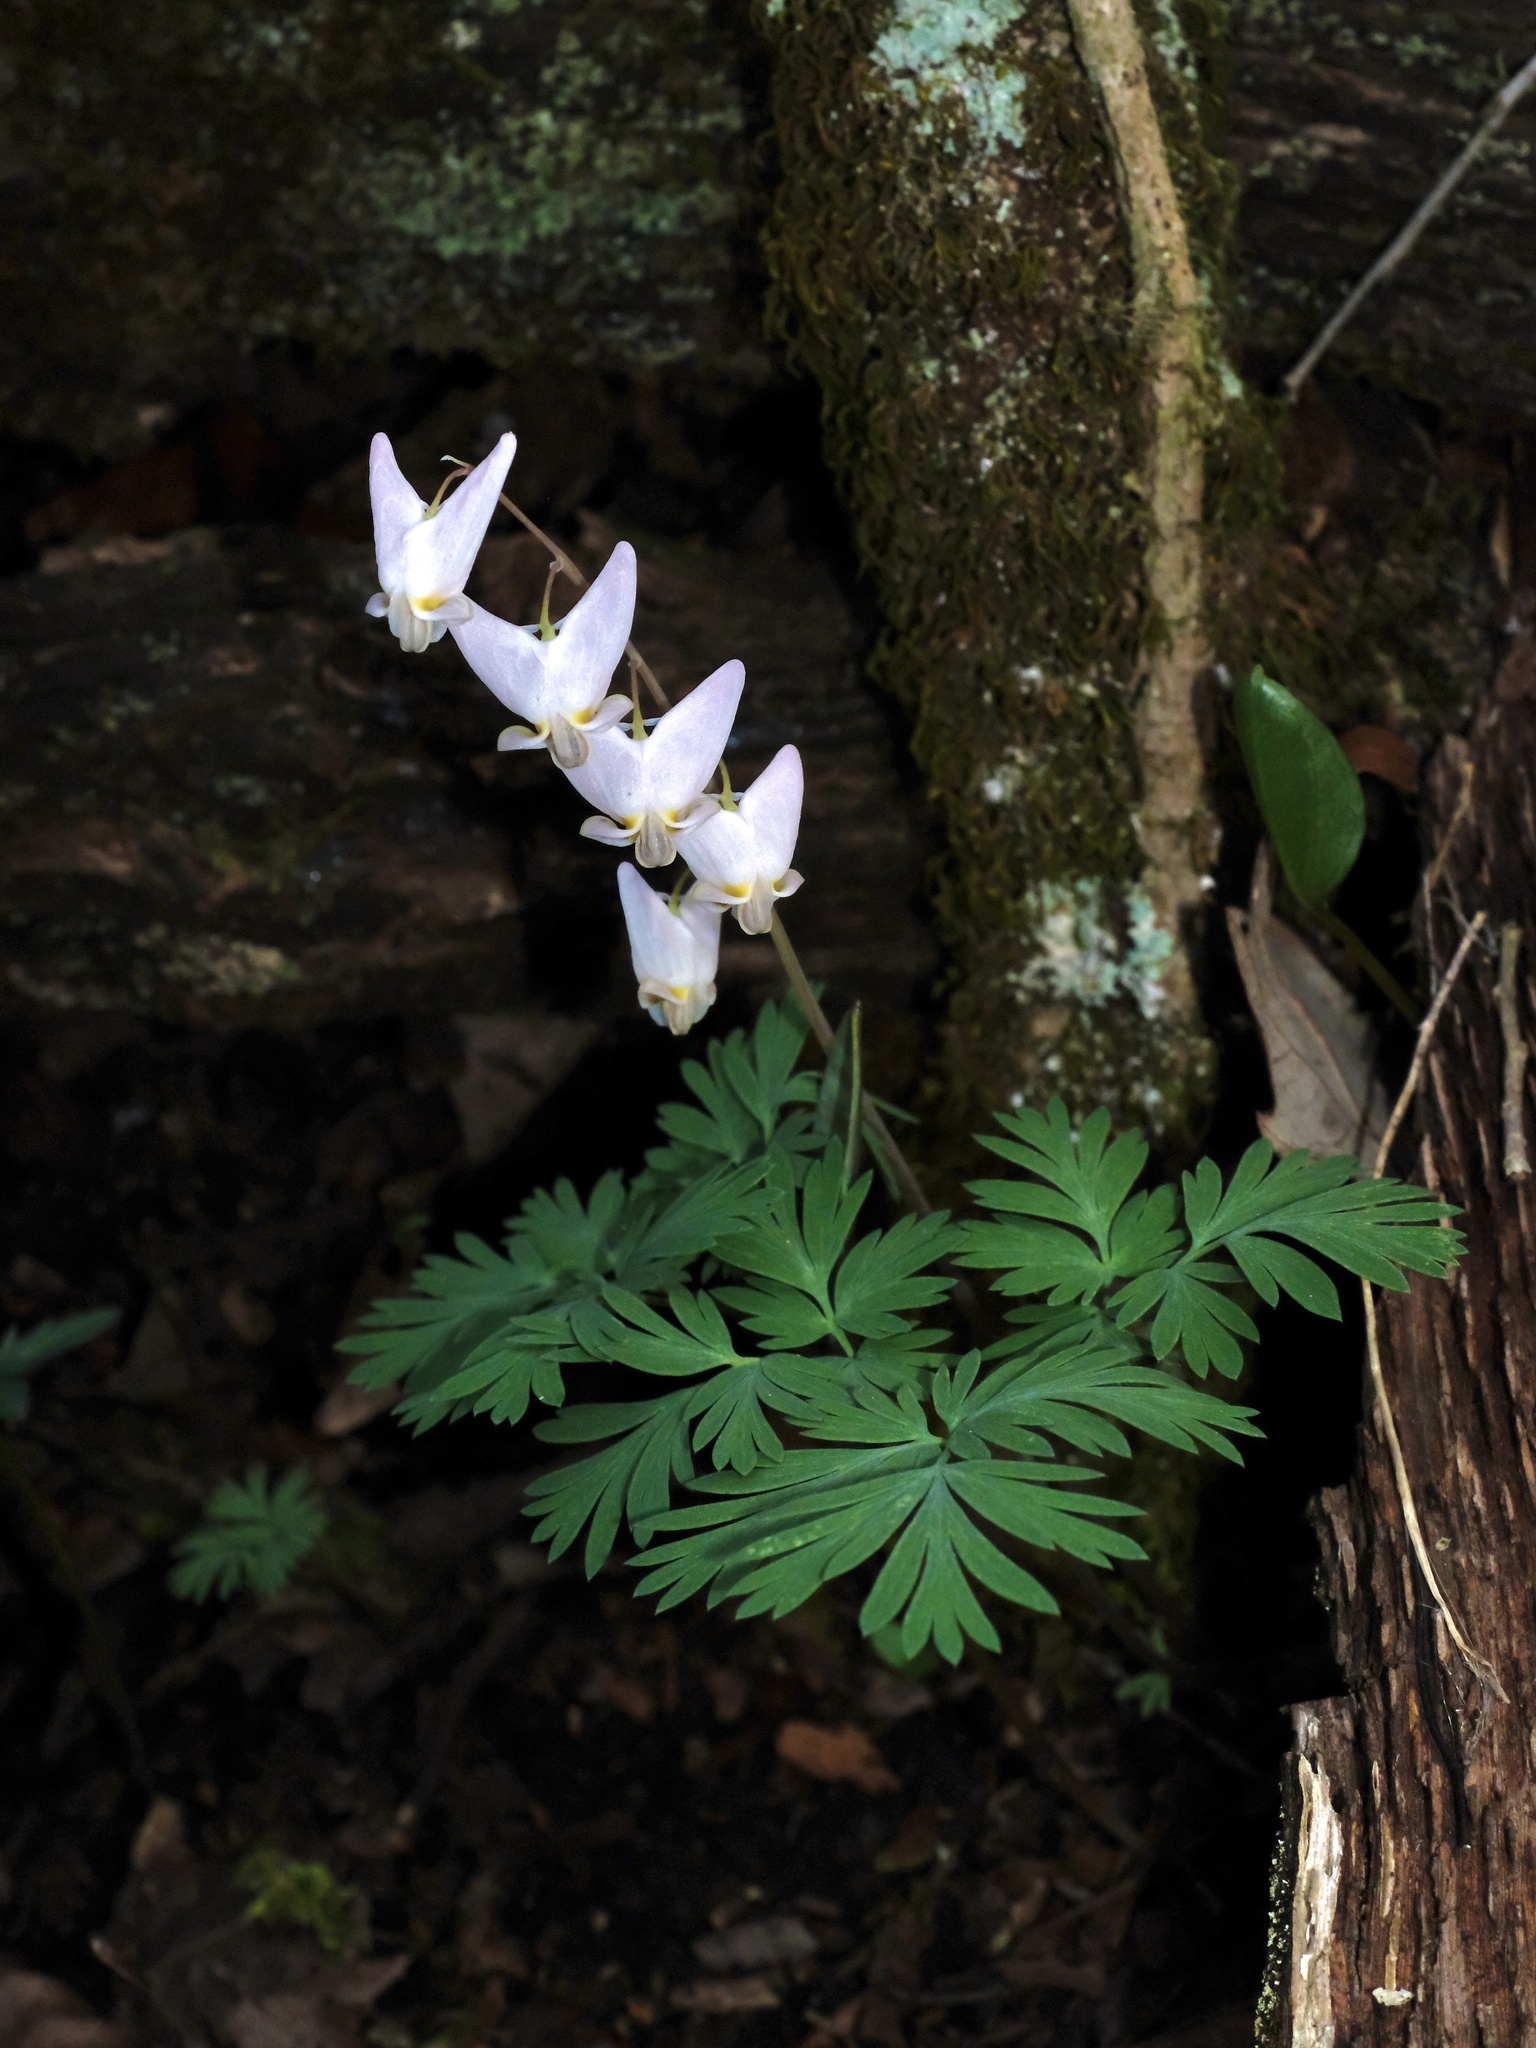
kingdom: Plantae
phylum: Tracheophyta
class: Magnoliopsida
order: Ranunculales
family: Papaveraceae
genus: Dicentra
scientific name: Dicentra cucullaria
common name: Dutchman's breeches
